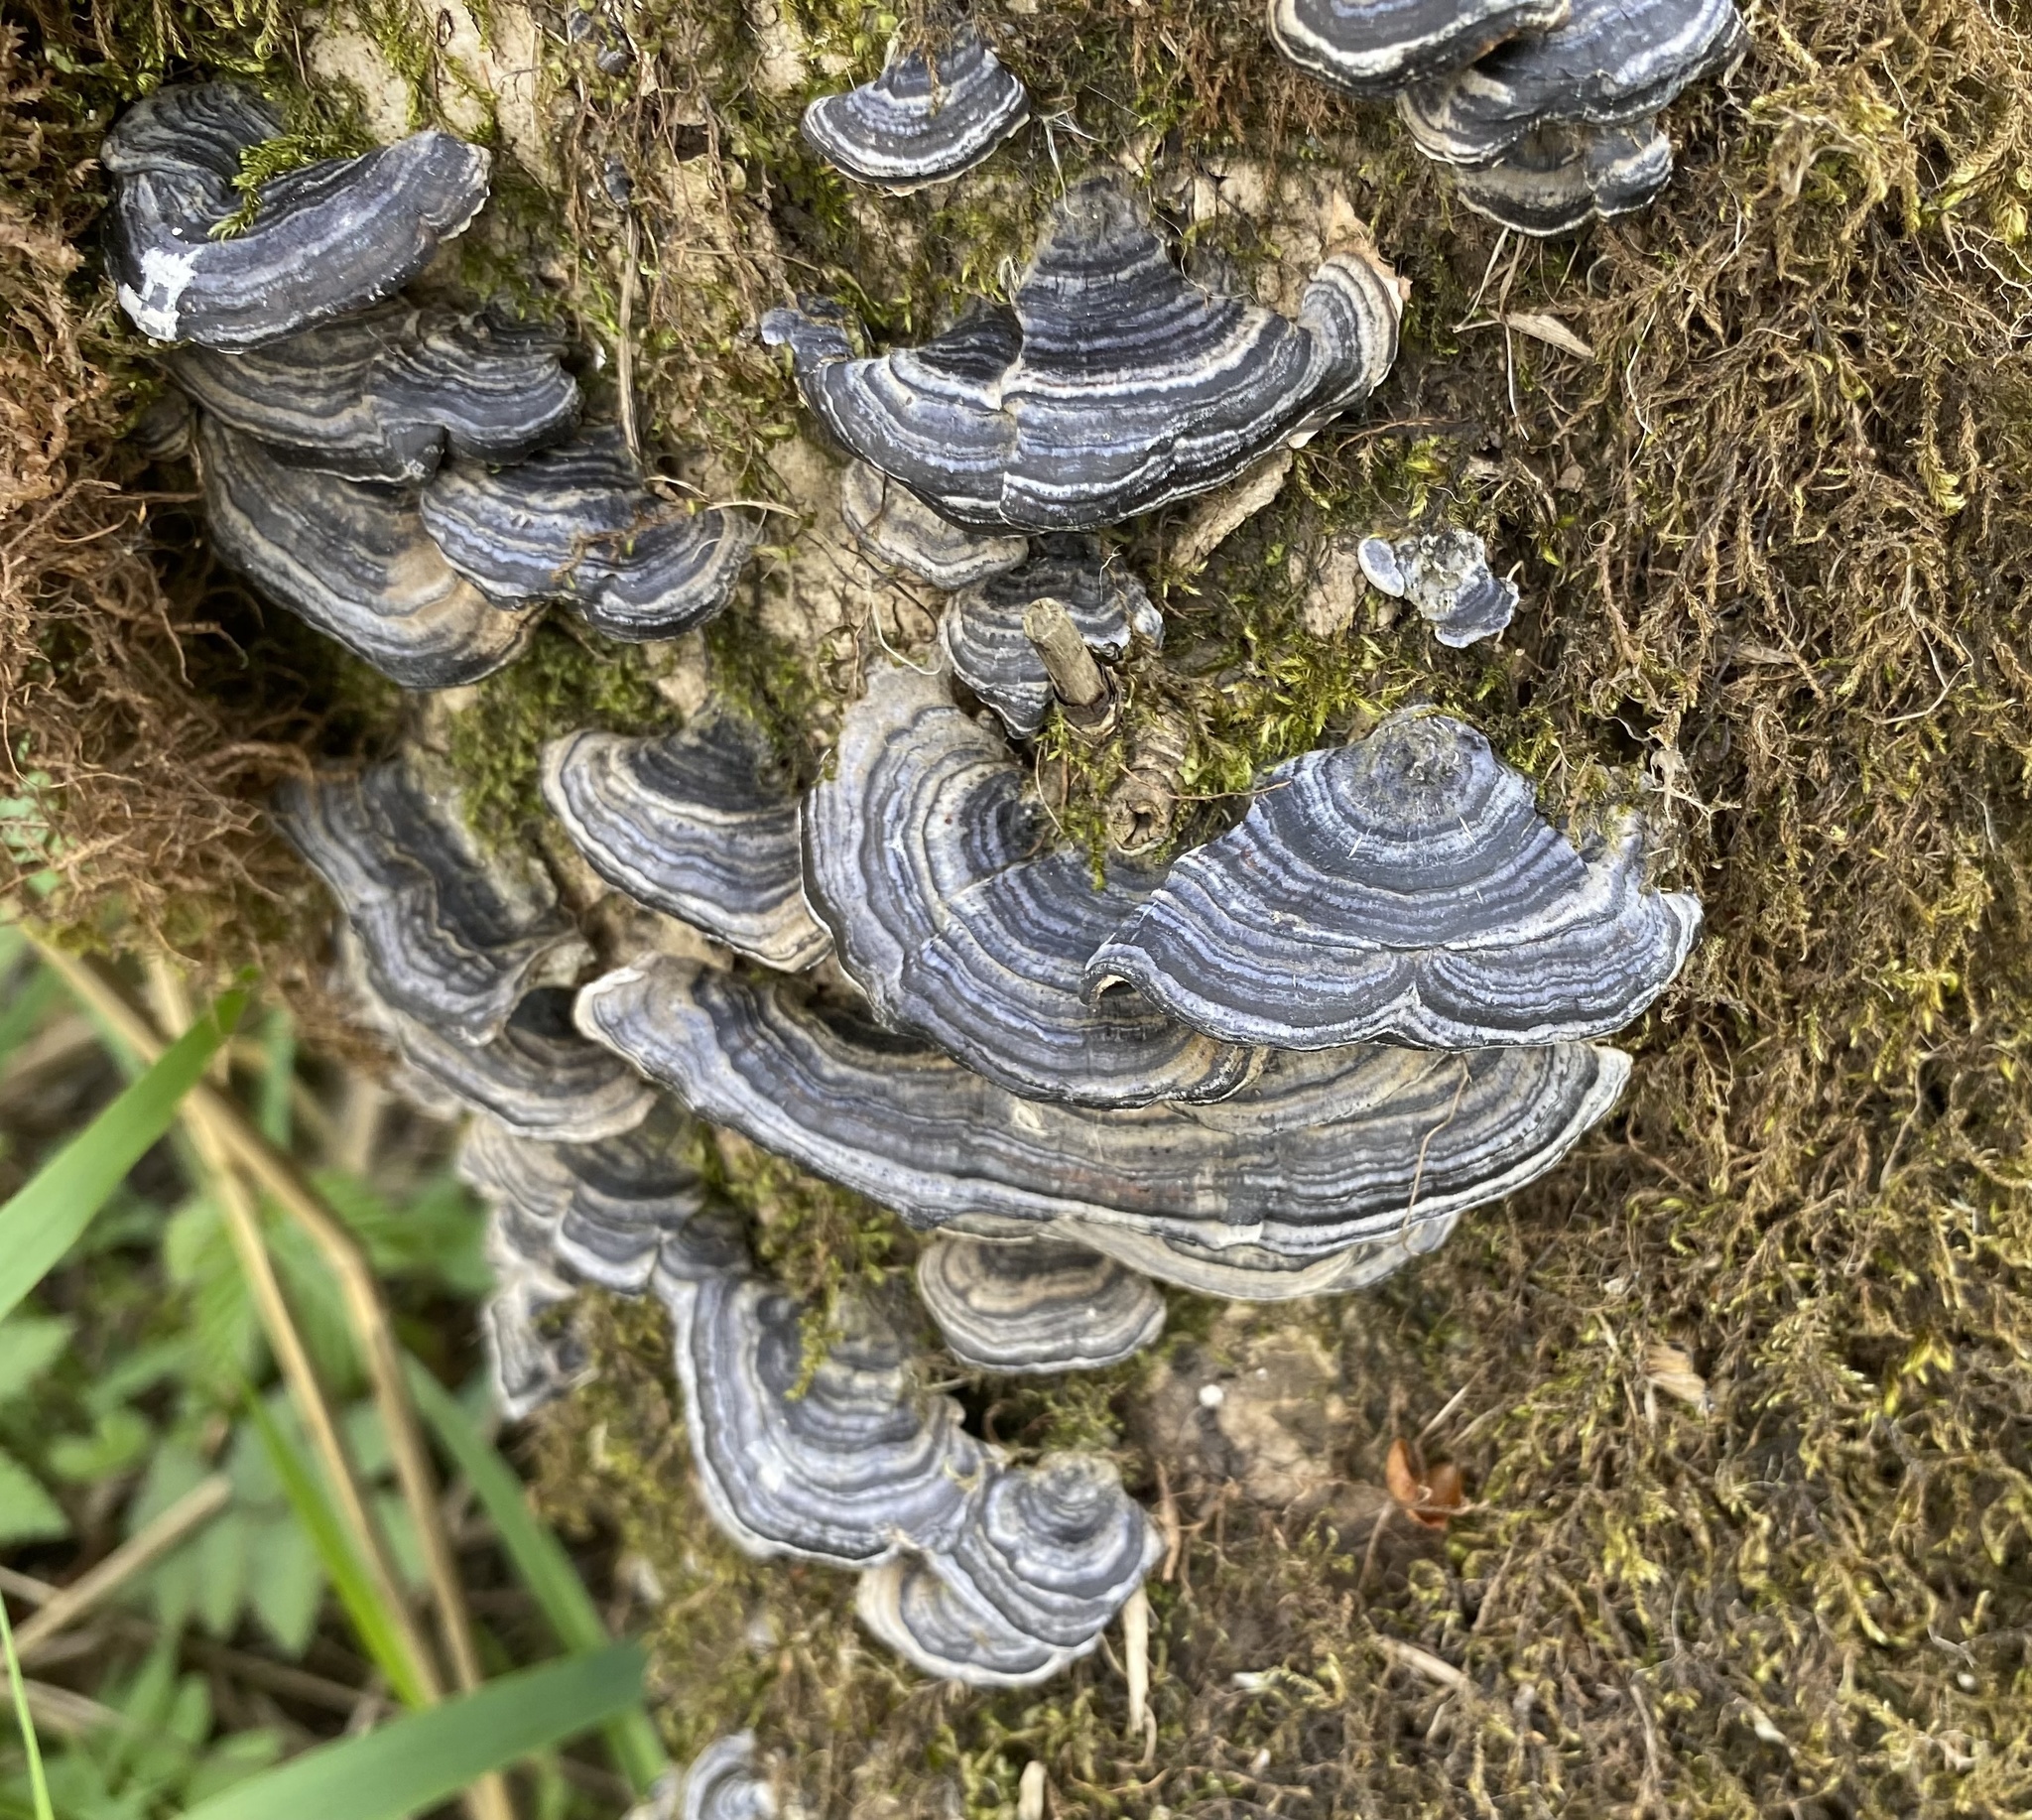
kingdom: Fungi
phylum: Basidiomycota
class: Agaricomycetes
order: Polyporales
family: Polyporaceae
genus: Trametes
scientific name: Trametes versicolor
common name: Turkeytail
